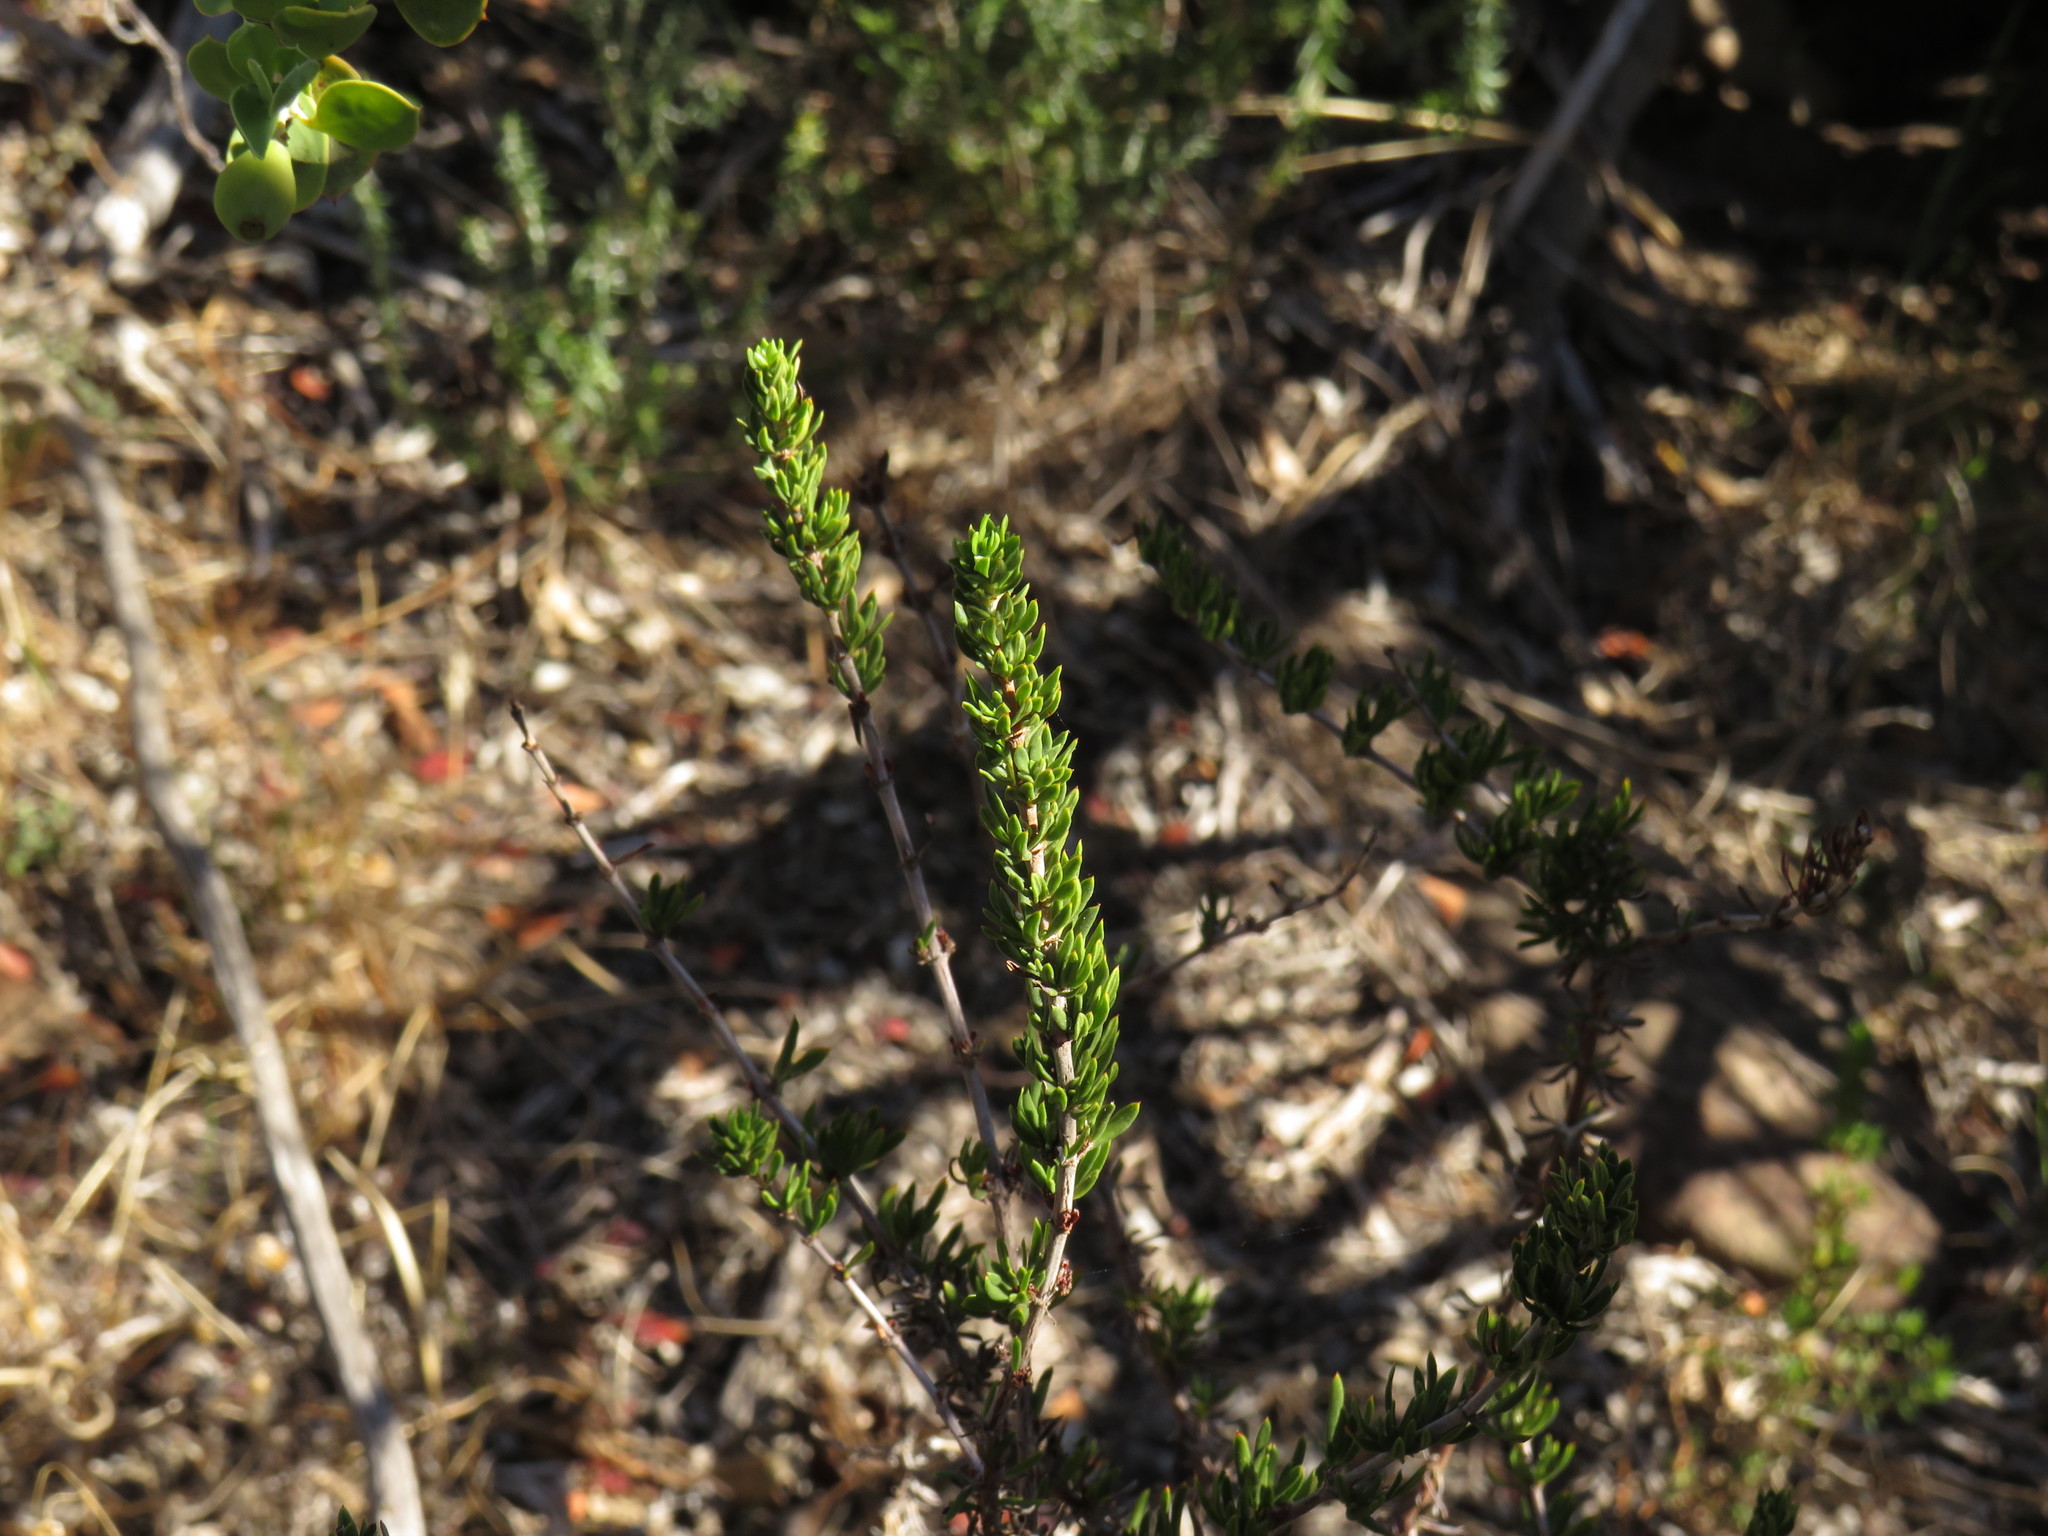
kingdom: Plantae
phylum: Tracheophyta
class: Magnoliopsida
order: Gentianales
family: Rubiaceae
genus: Anthospermum
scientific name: Anthospermum aethiopicum
